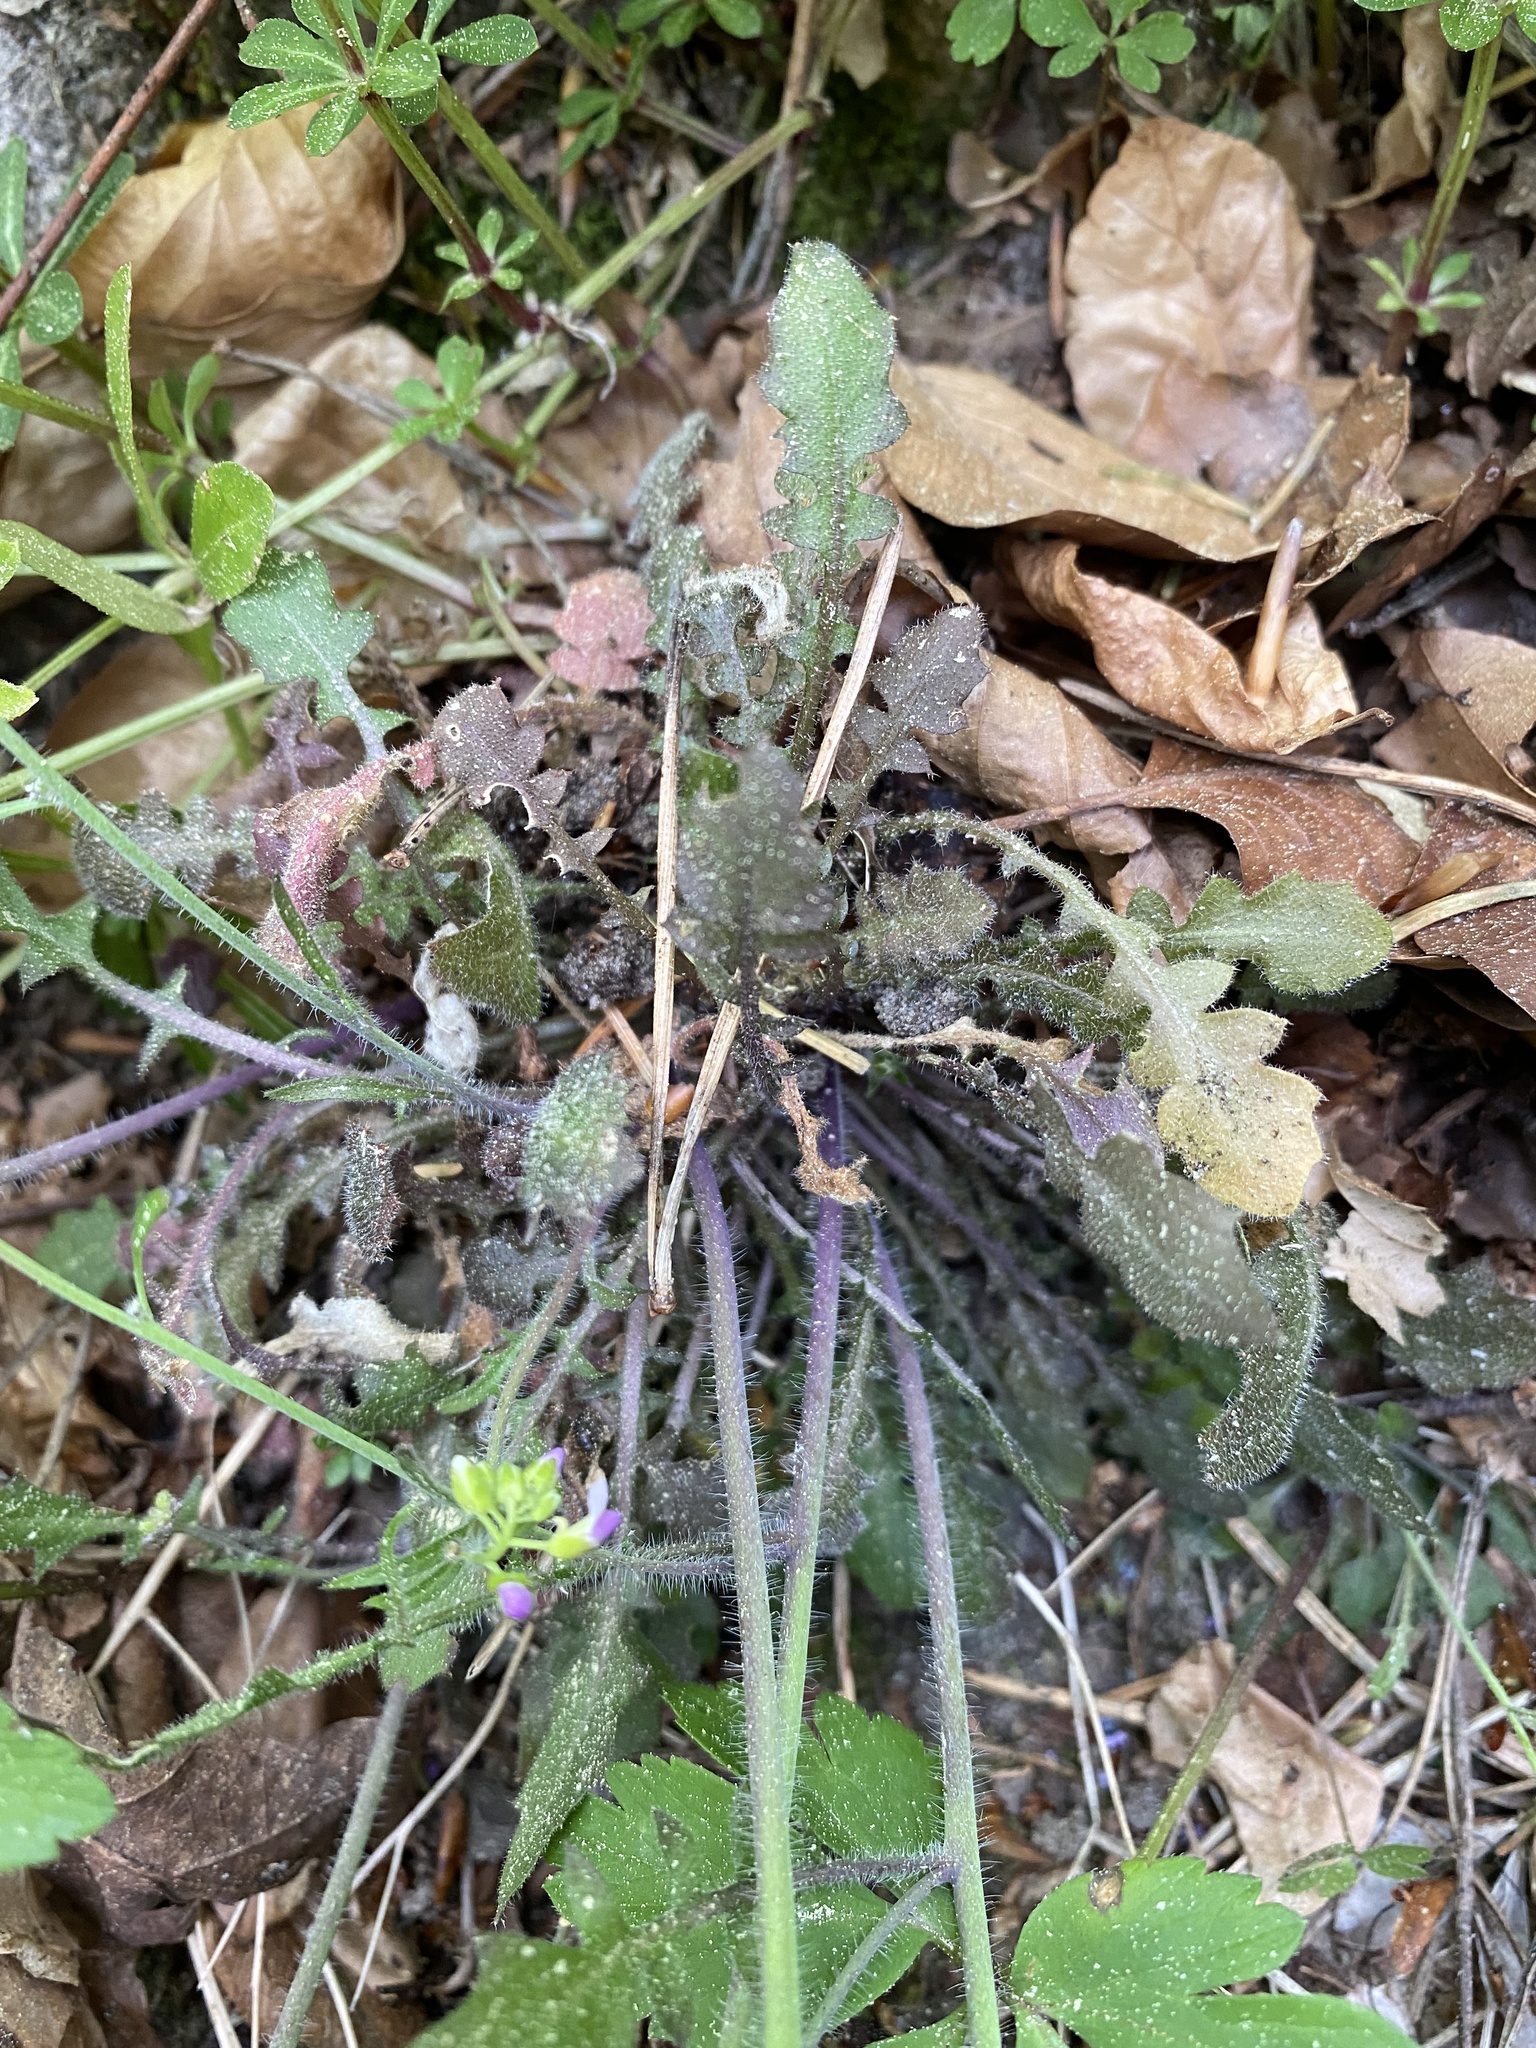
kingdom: Plantae
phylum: Tracheophyta
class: Magnoliopsida
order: Brassicales
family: Brassicaceae
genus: Arabidopsis
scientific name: Arabidopsis arenosa
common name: Sand rock-cress
